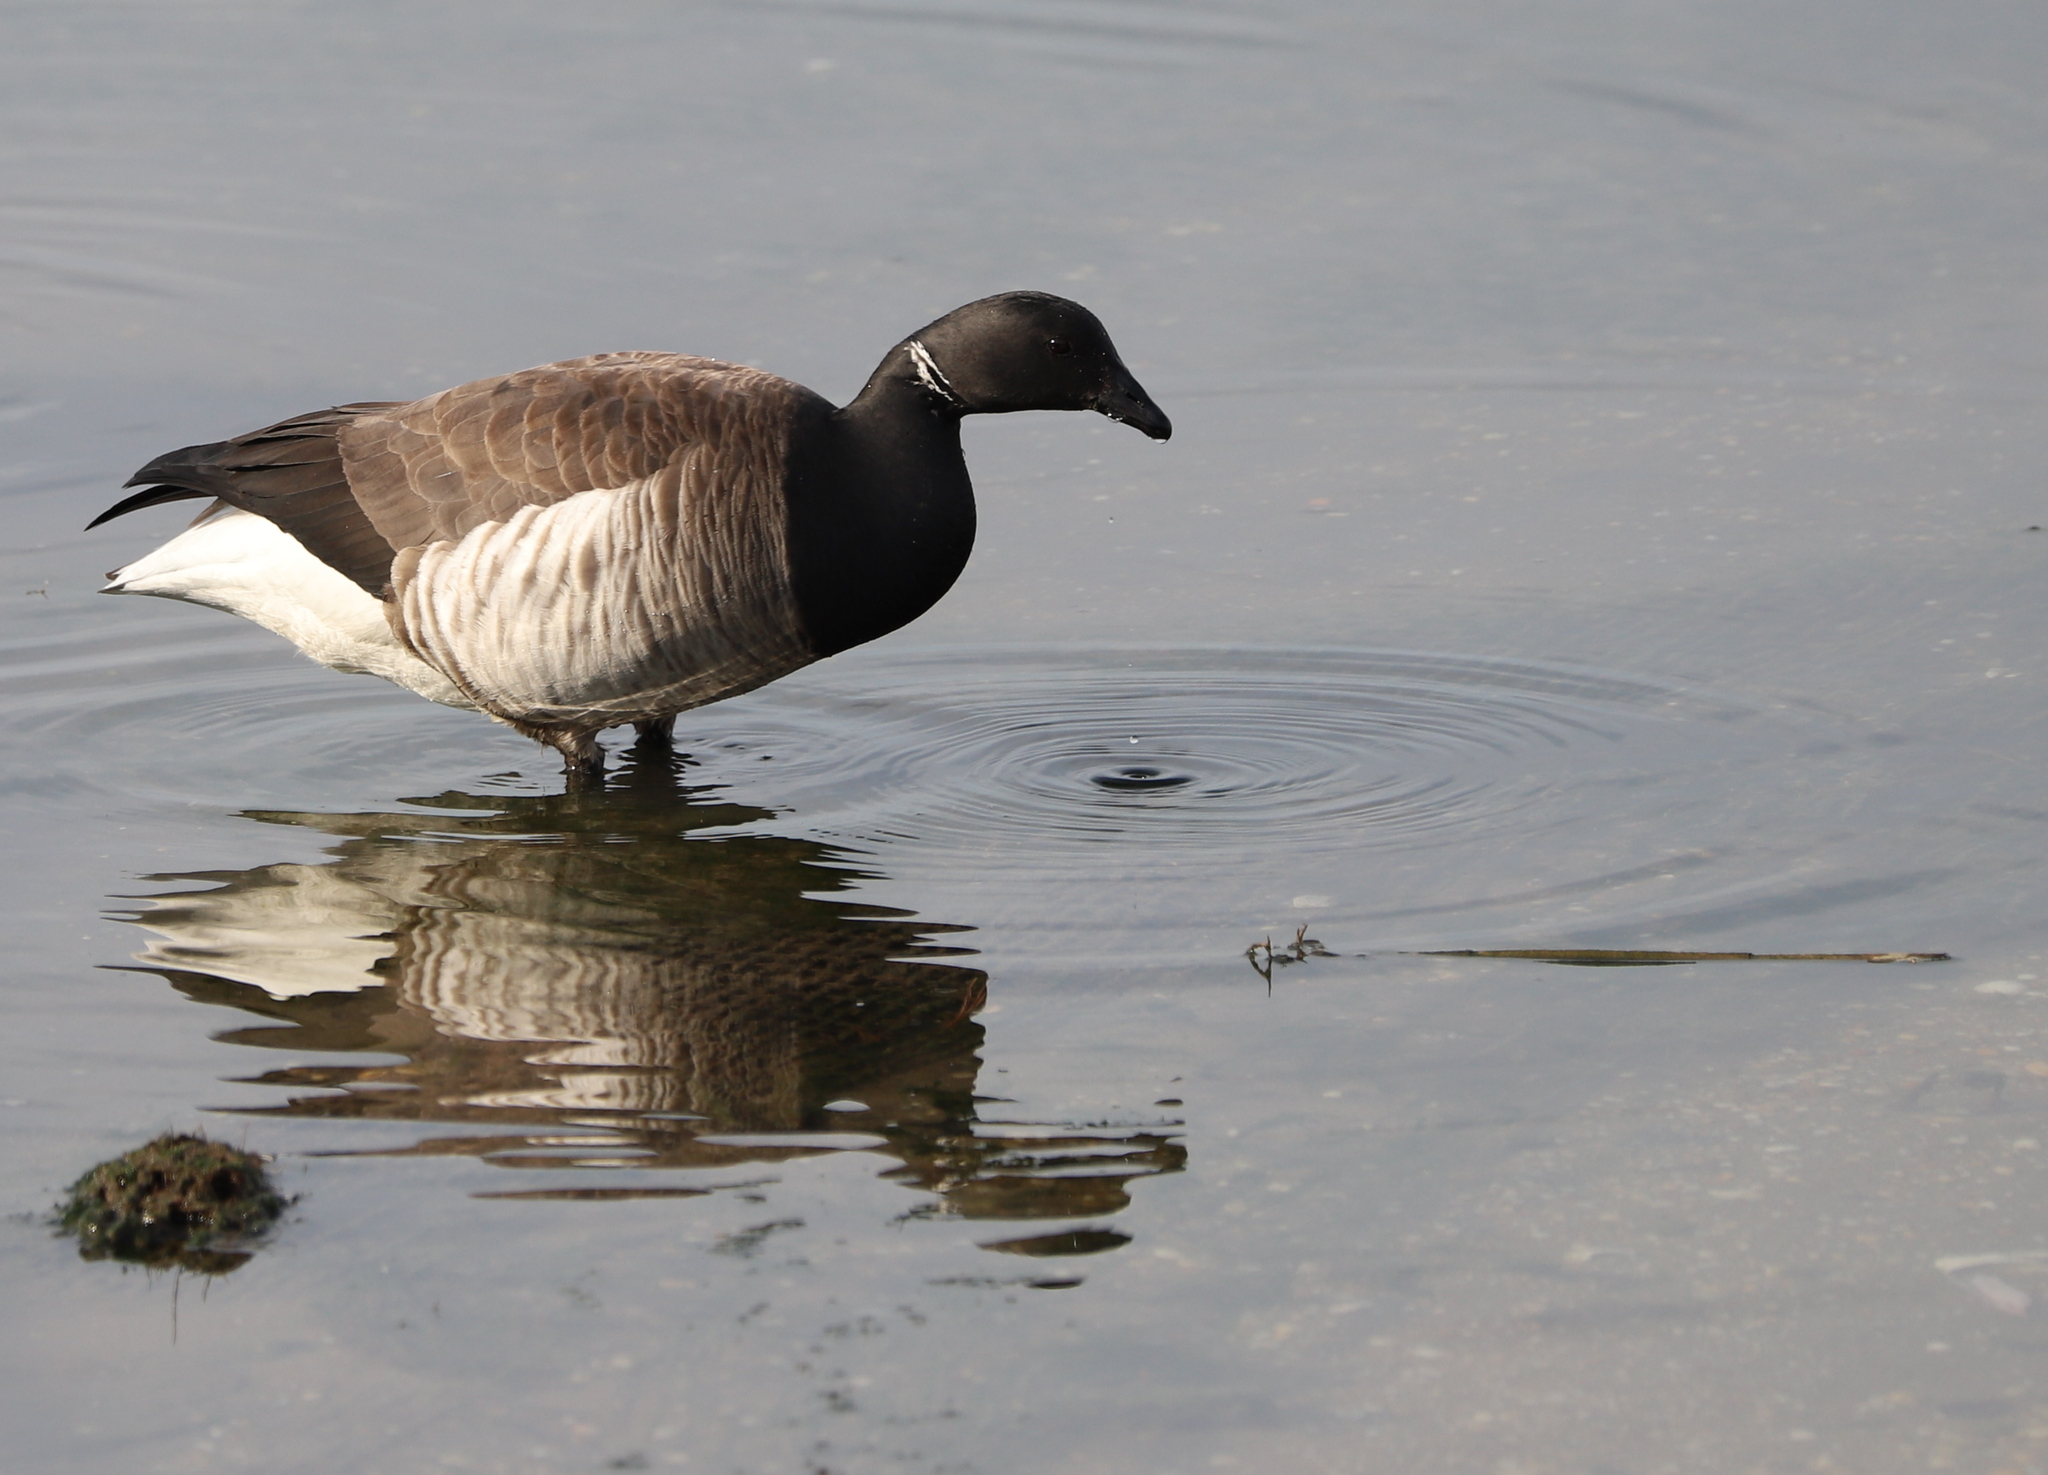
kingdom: Animalia
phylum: Chordata
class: Aves
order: Anseriformes
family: Anatidae
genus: Branta
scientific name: Branta bernicla
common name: Brant goose
